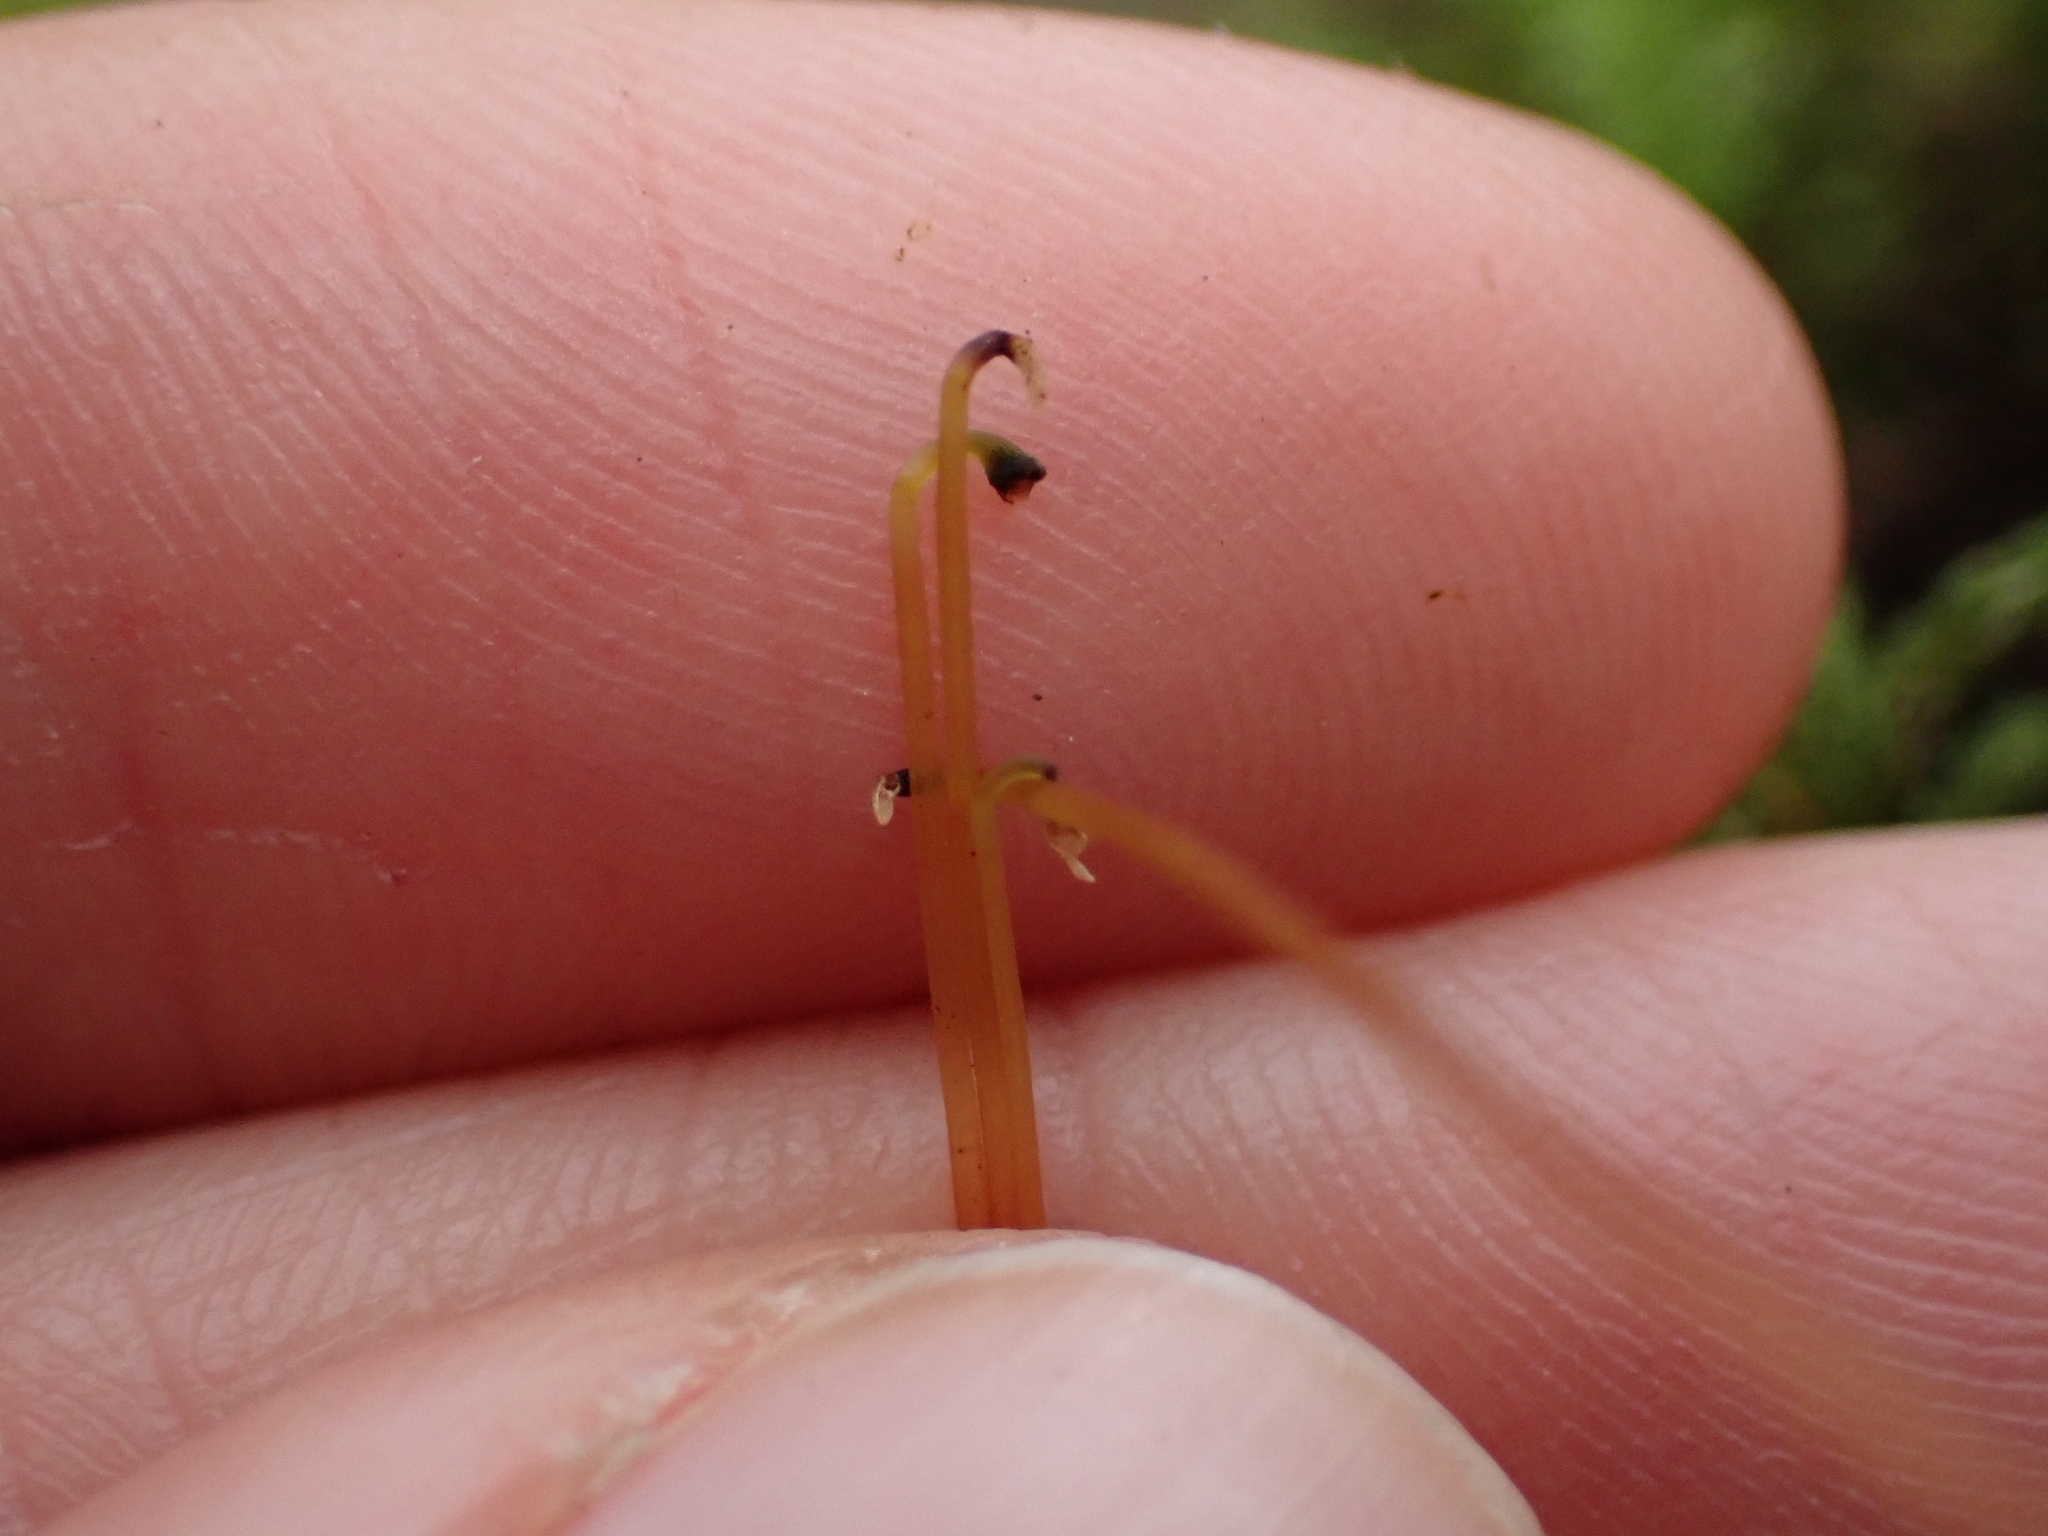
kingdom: Plantae
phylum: Bryophyta
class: Bryopsida
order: Bryales
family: Mniaceae
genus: Leucolepis
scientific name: Leucolepis acanthoneura
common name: Leucolepis umbrella moss
